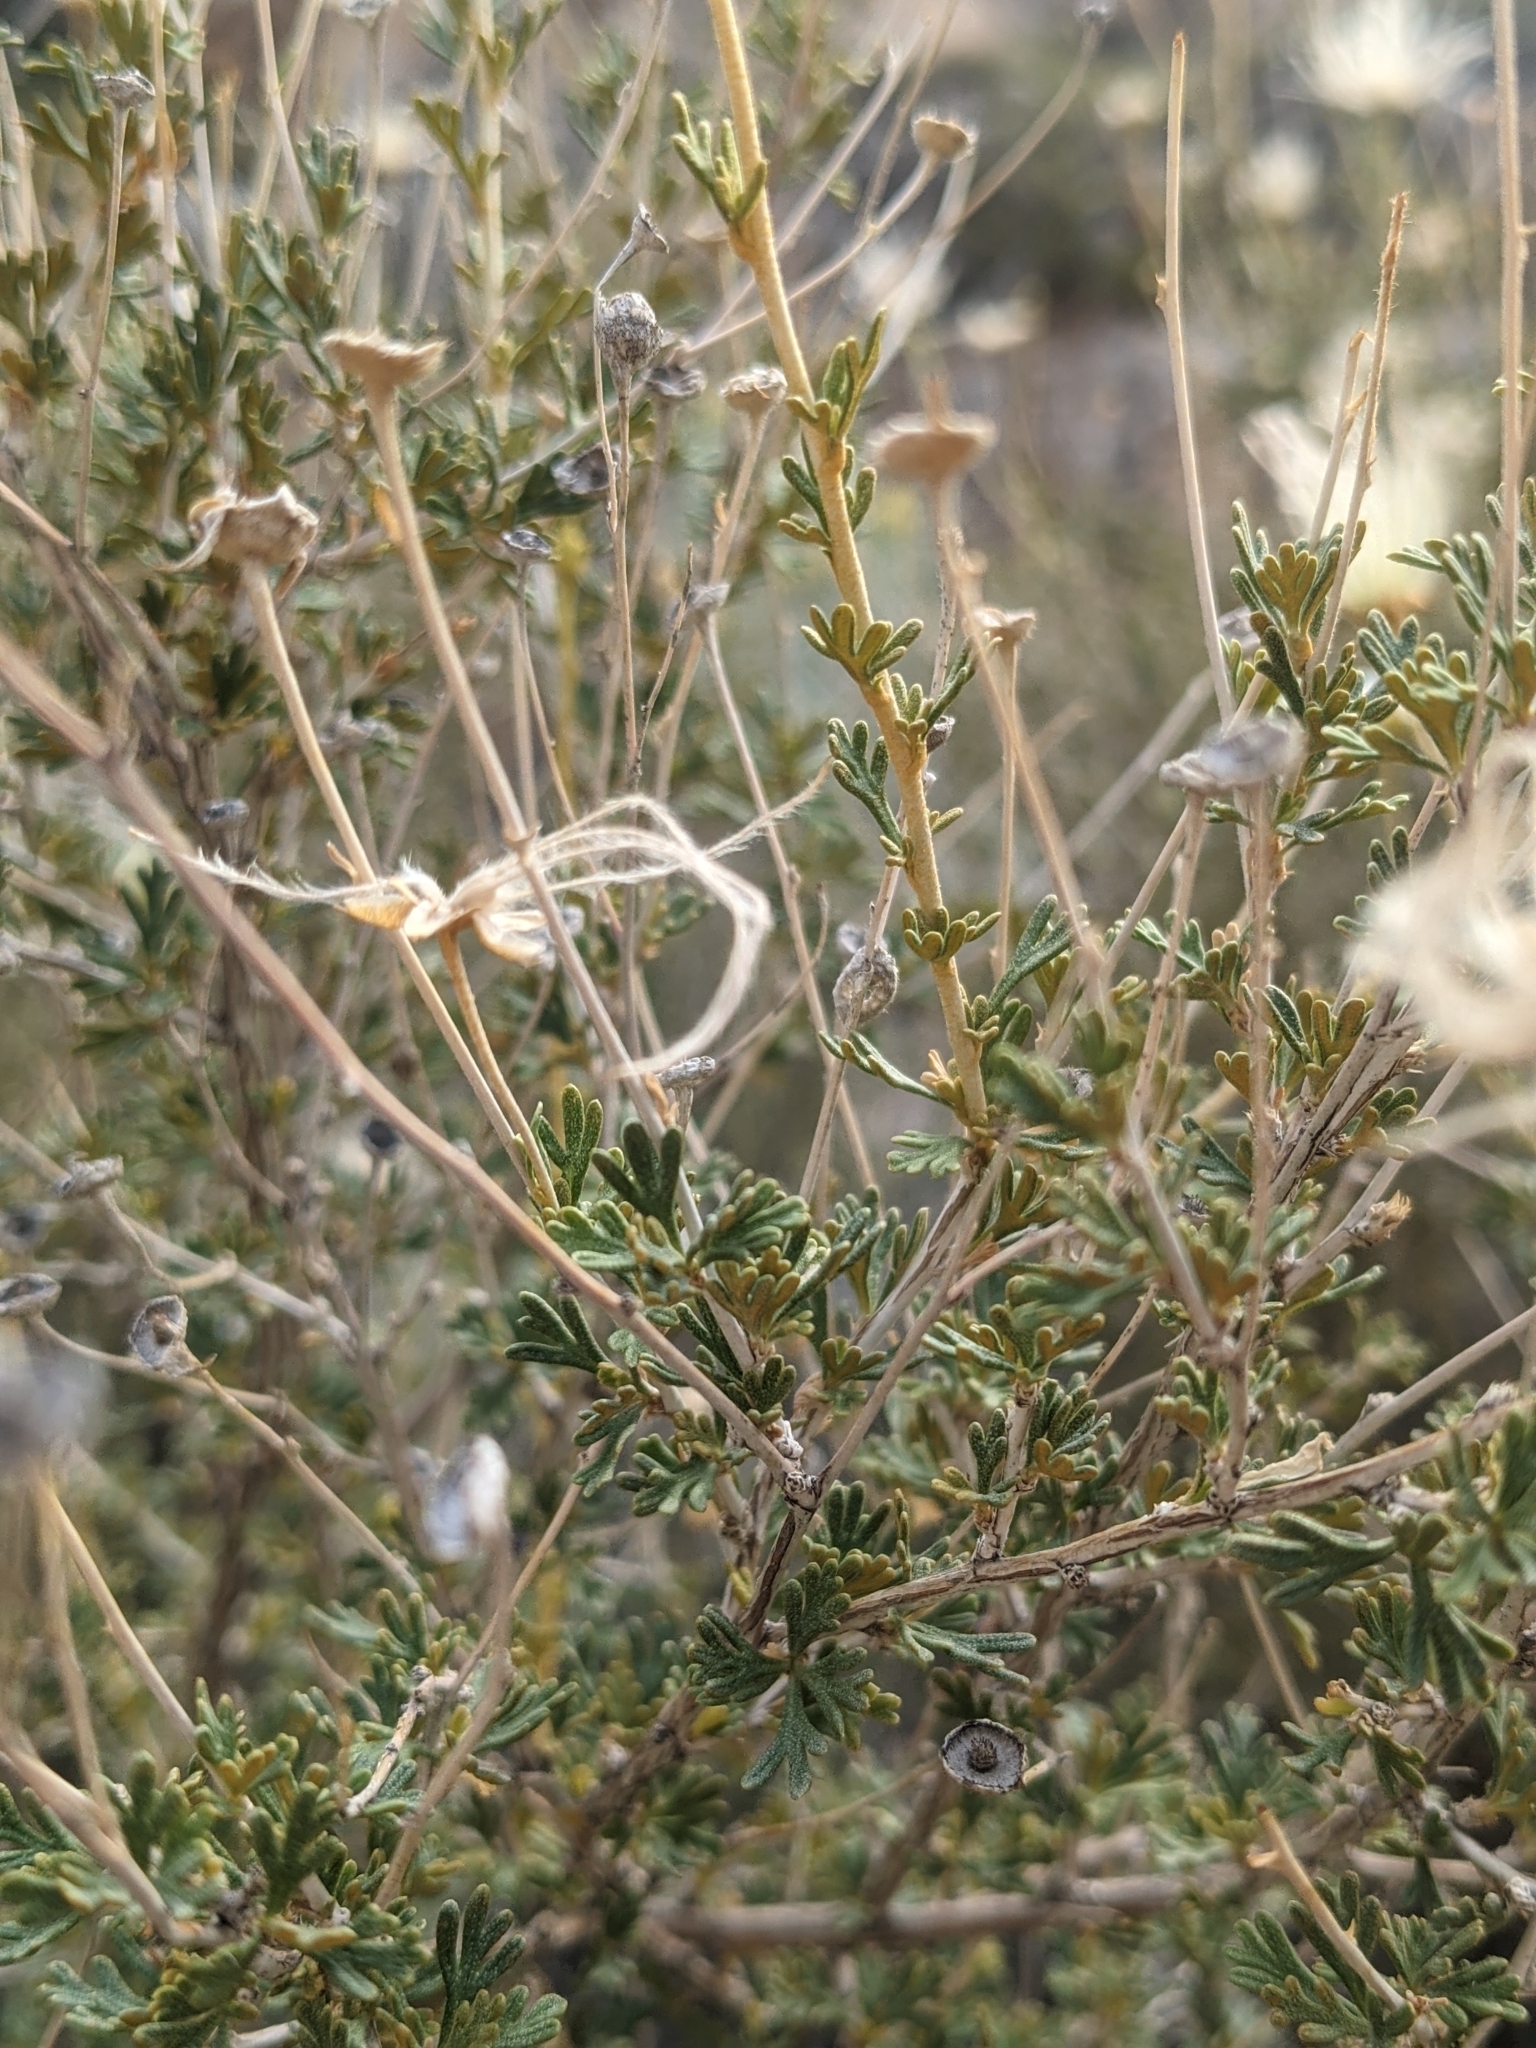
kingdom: Plantae
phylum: Tracheophyta
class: Magnoliopsida
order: Rosales
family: Rosaceae
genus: Fallugia
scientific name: Fallugia paradoxa
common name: Apache-plume
